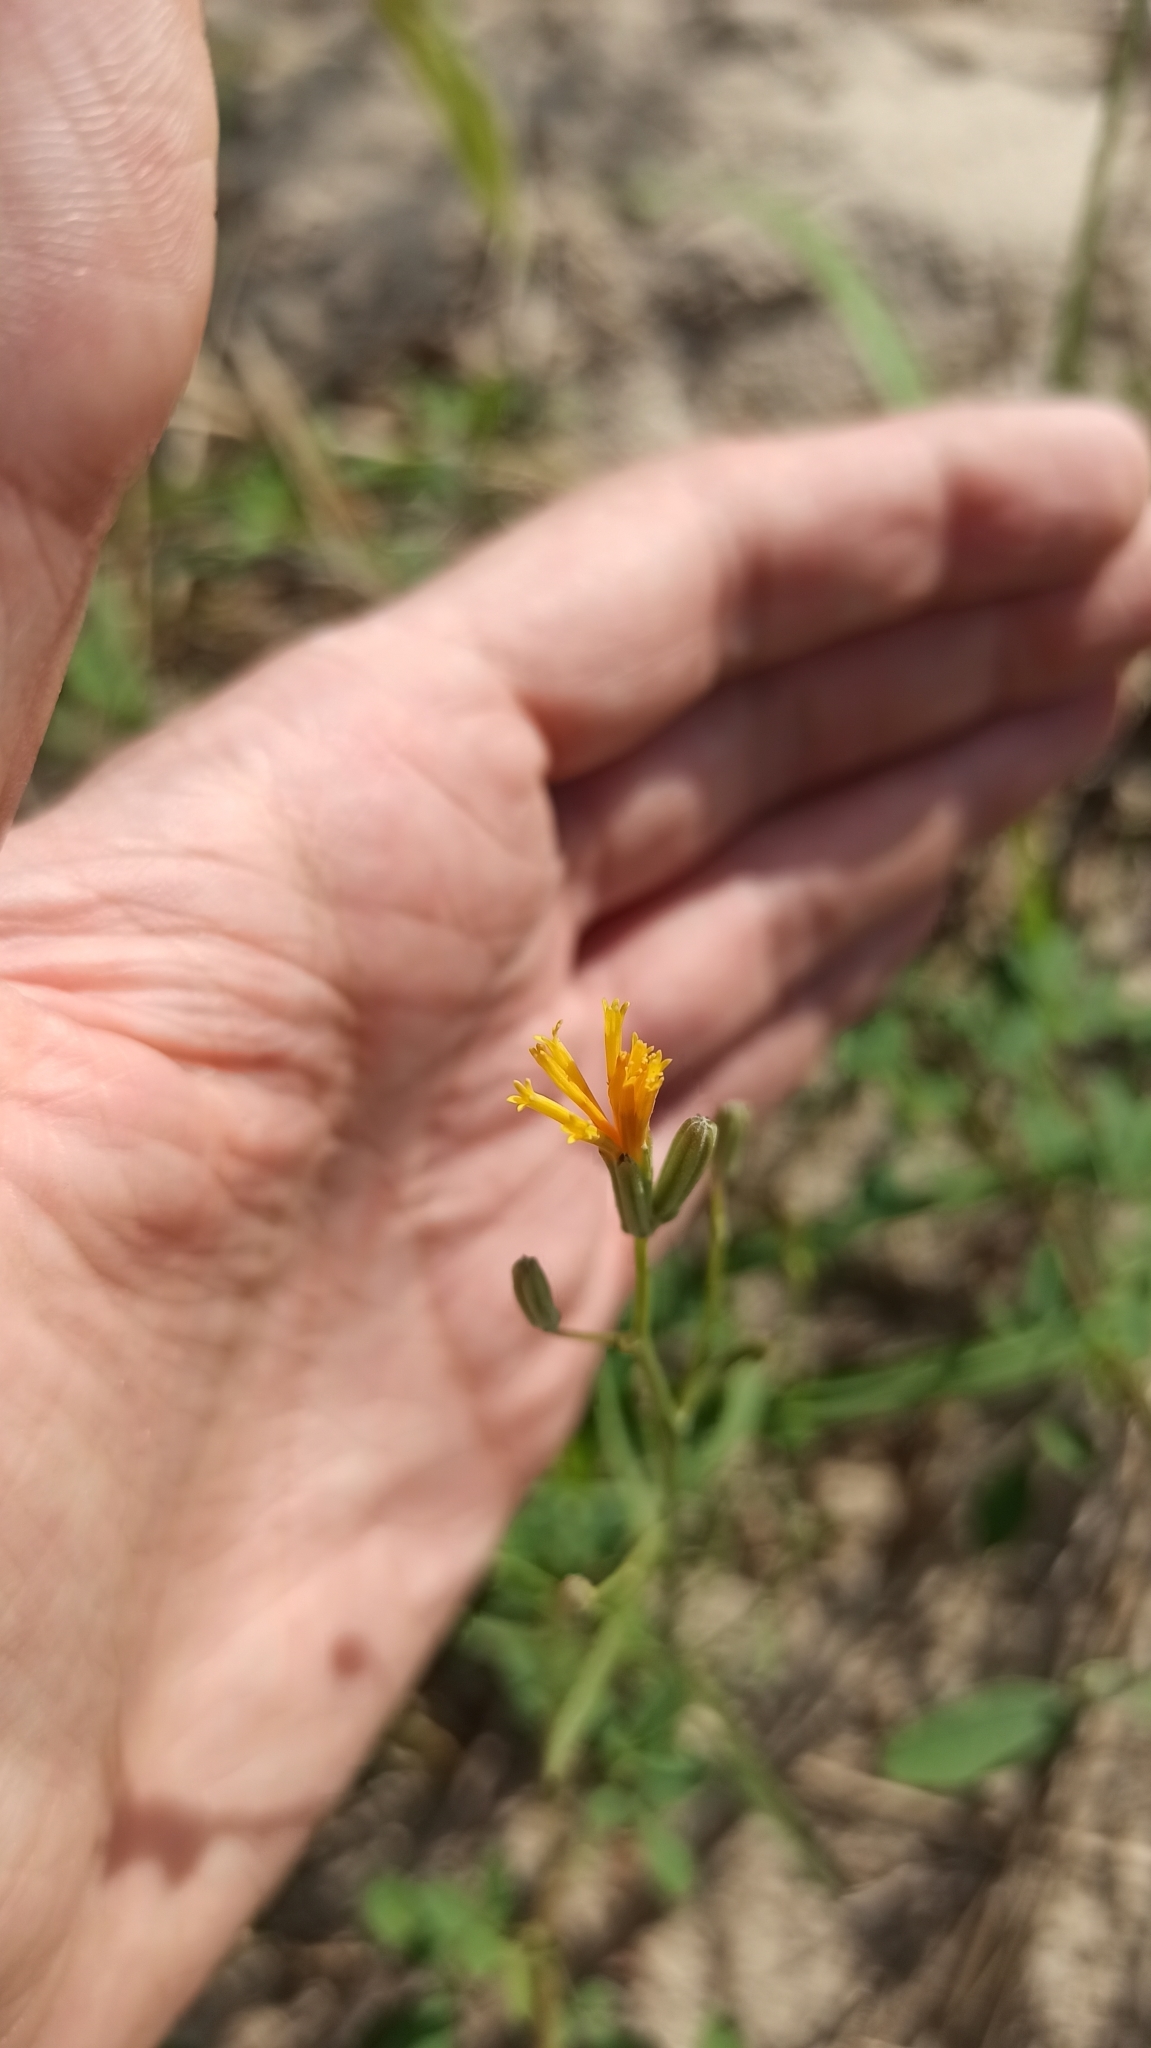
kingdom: Plantae
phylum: Tracheophyta
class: Magnoliopsida
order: Asterales
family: Asteraceae
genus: Chondrilla
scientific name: Chondrilla juncea
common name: Skeleton weed
